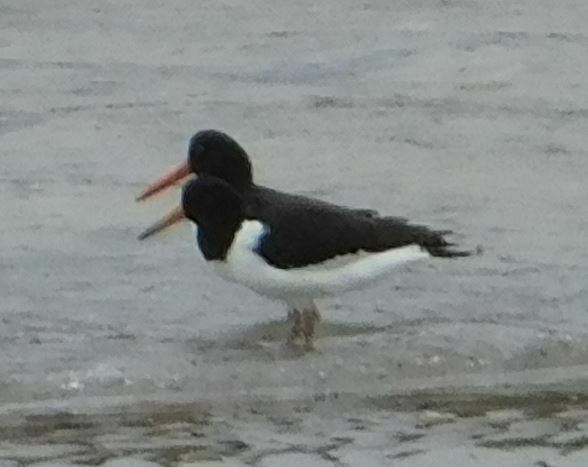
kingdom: Animalia
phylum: Chordata
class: Aves
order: Charadriiformes
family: Haematopodidae
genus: Haematopus
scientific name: Haematopus ostralegus
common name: Eurasian oystercatcher
